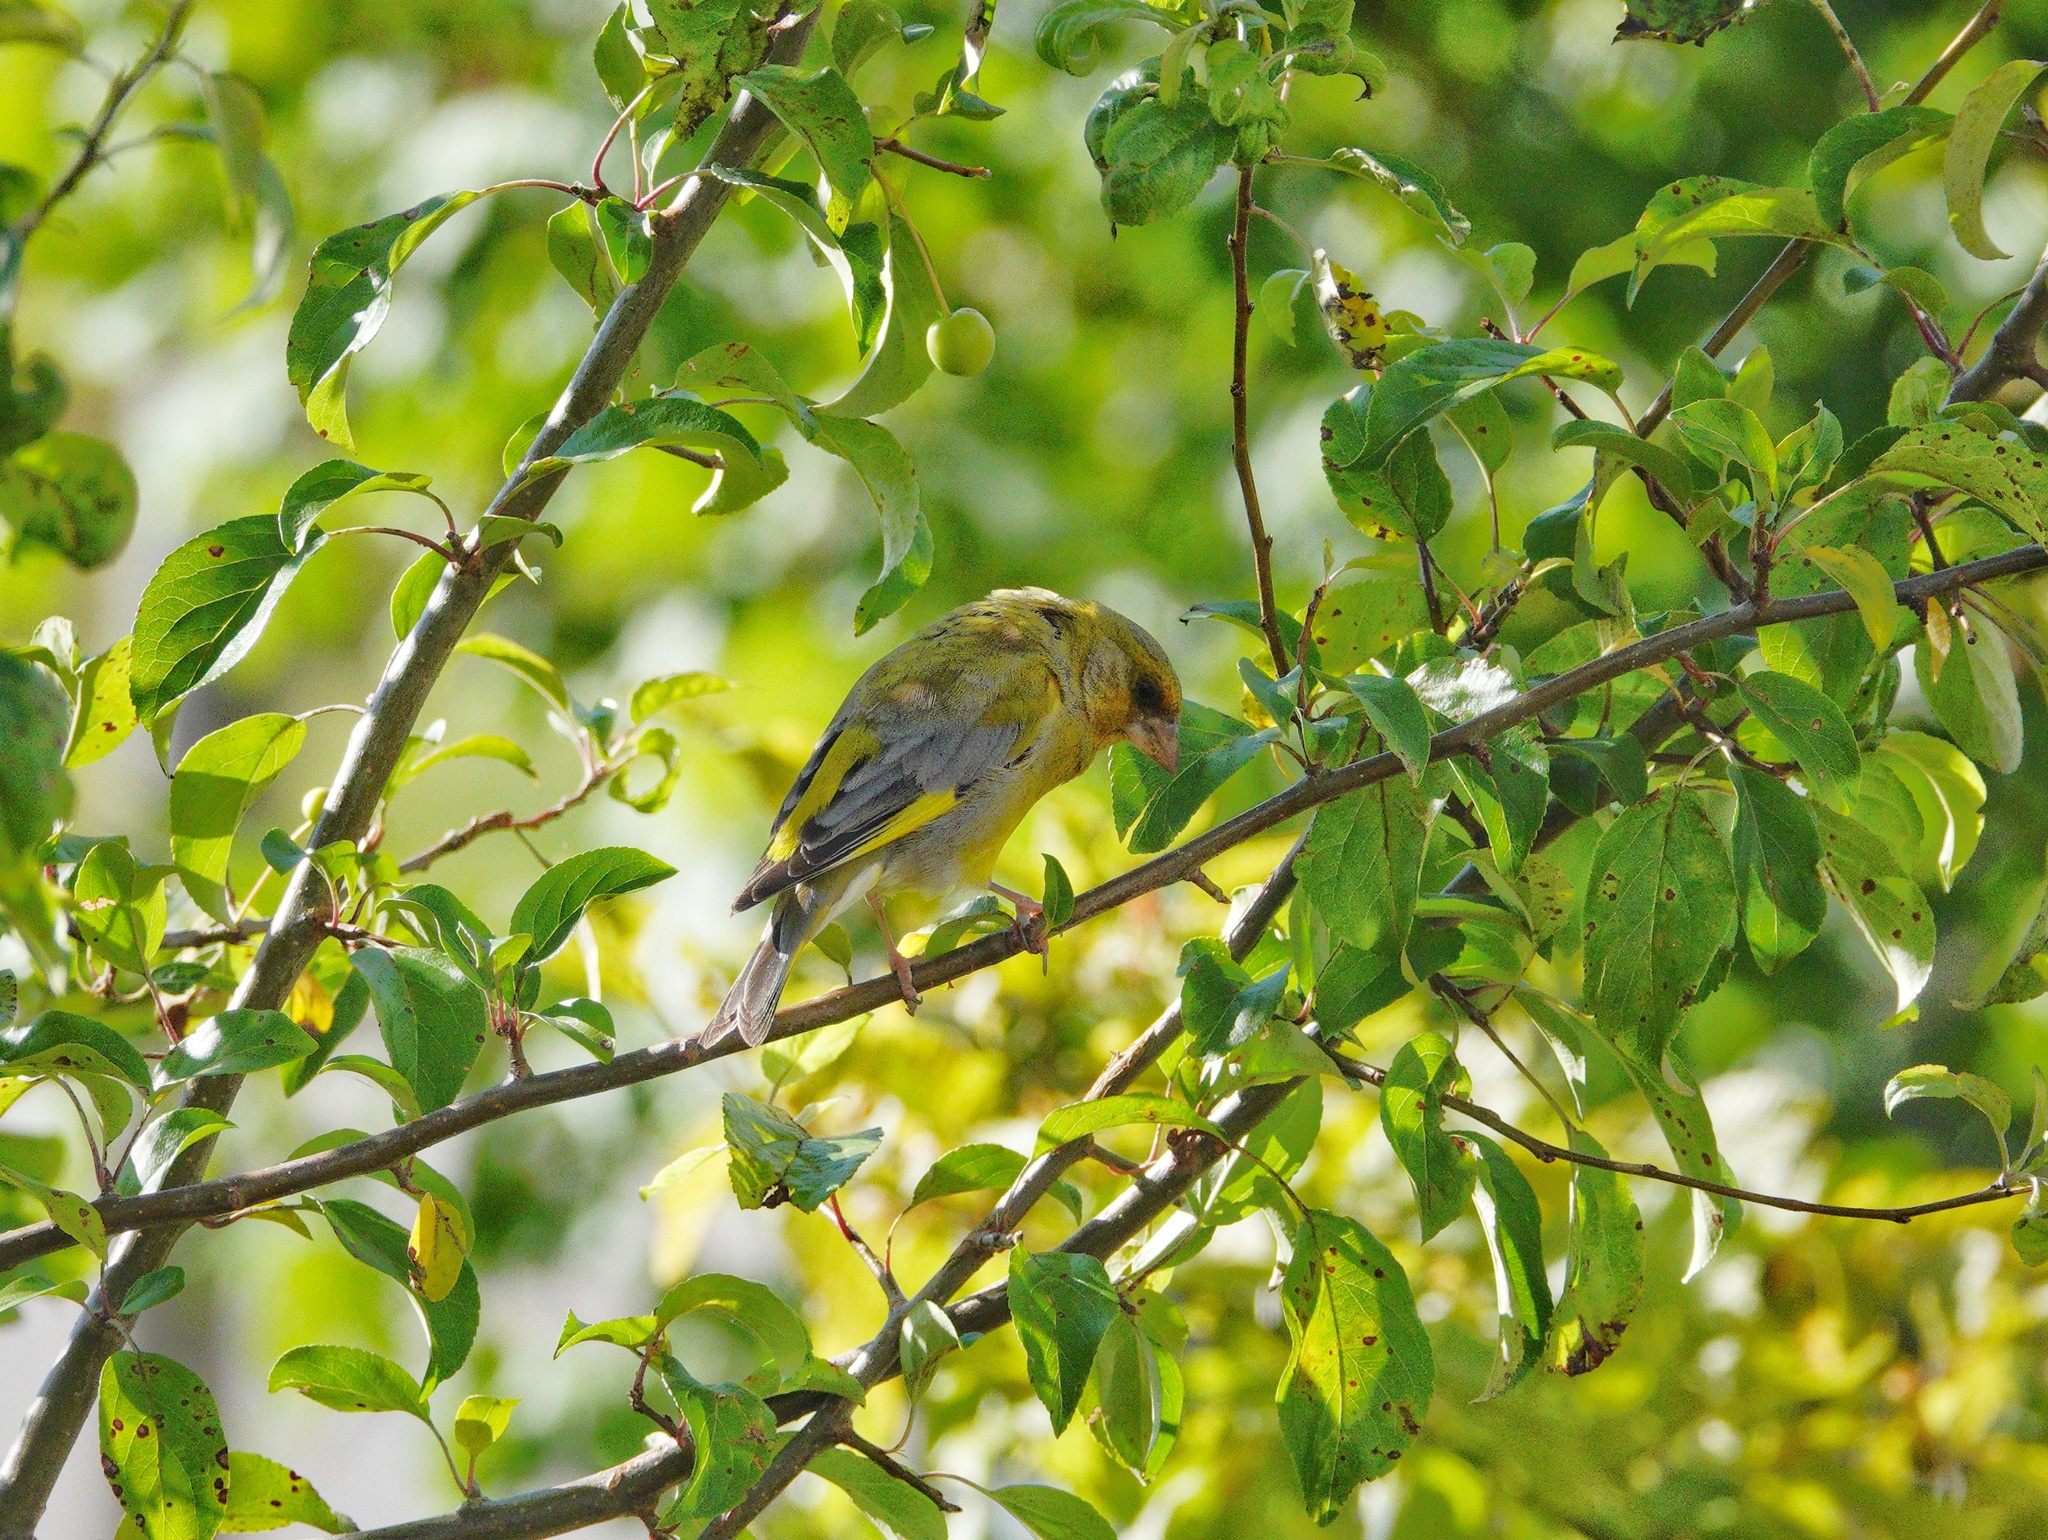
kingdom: Plantae
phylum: Tracheophyta
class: Liliopsida
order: Poales
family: Poaceae
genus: Chloris
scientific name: Chloris chloris
